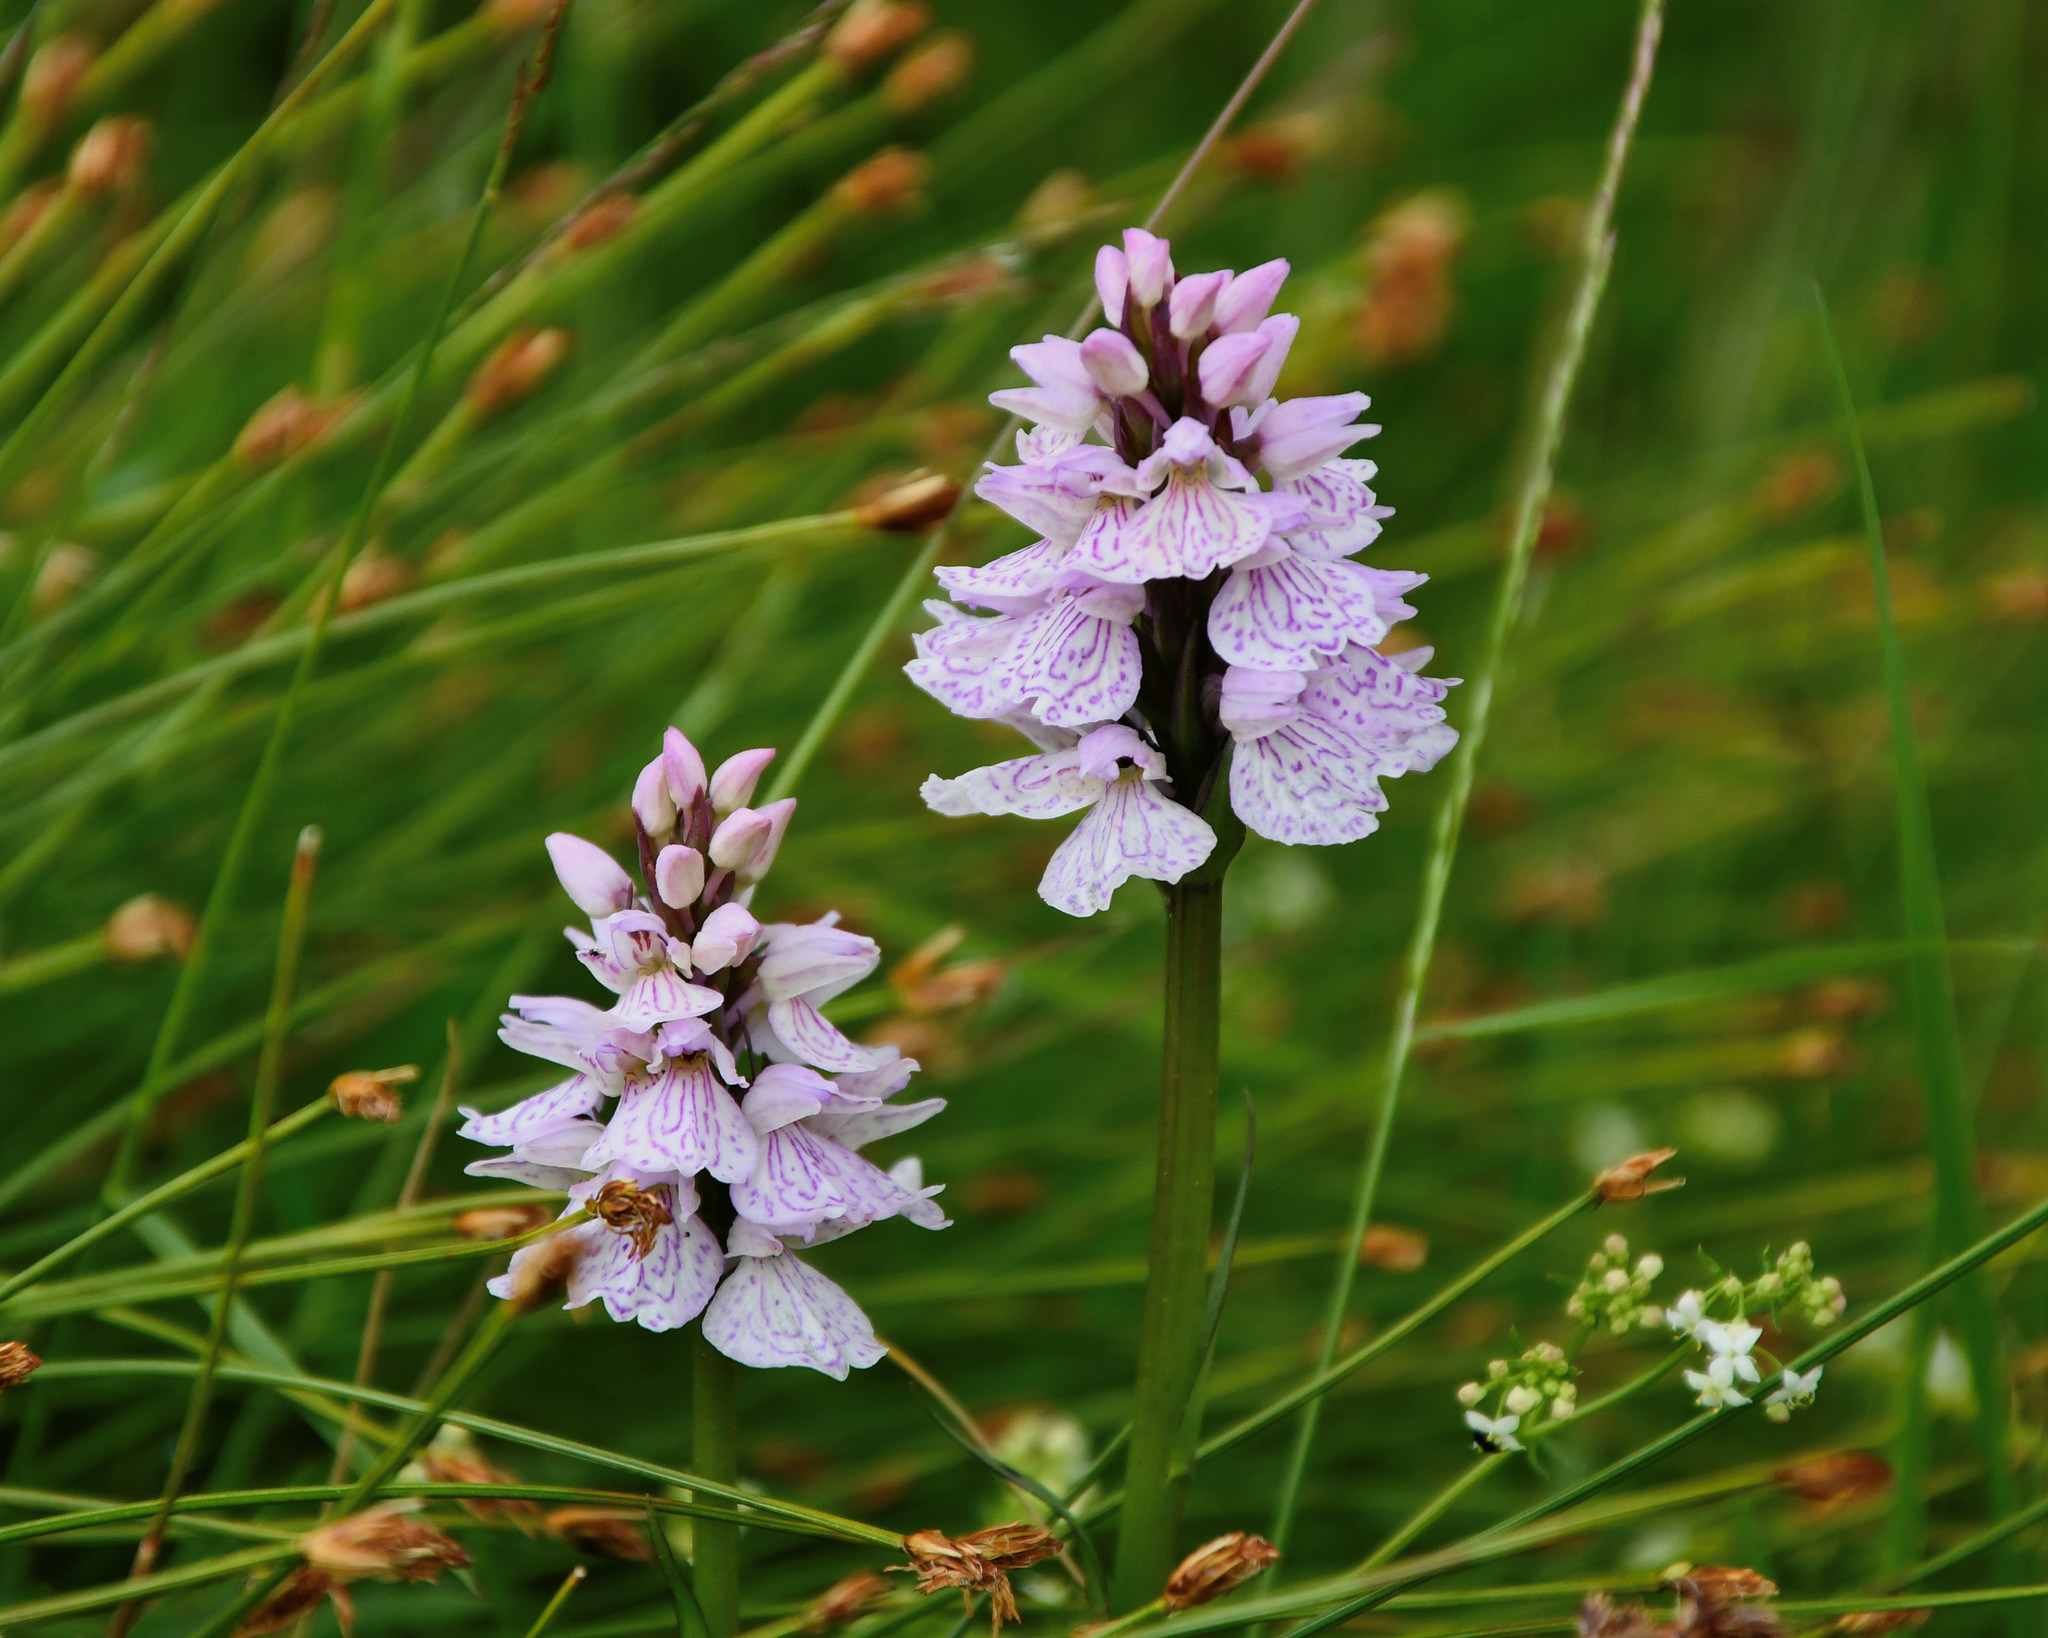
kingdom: Plantae
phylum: Tracheophyta
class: Liliopsida
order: Asparagales
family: Orchidaceae
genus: Dactylorhiza
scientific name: Dactylorhiza maculata
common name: Heath spotted-orchid
